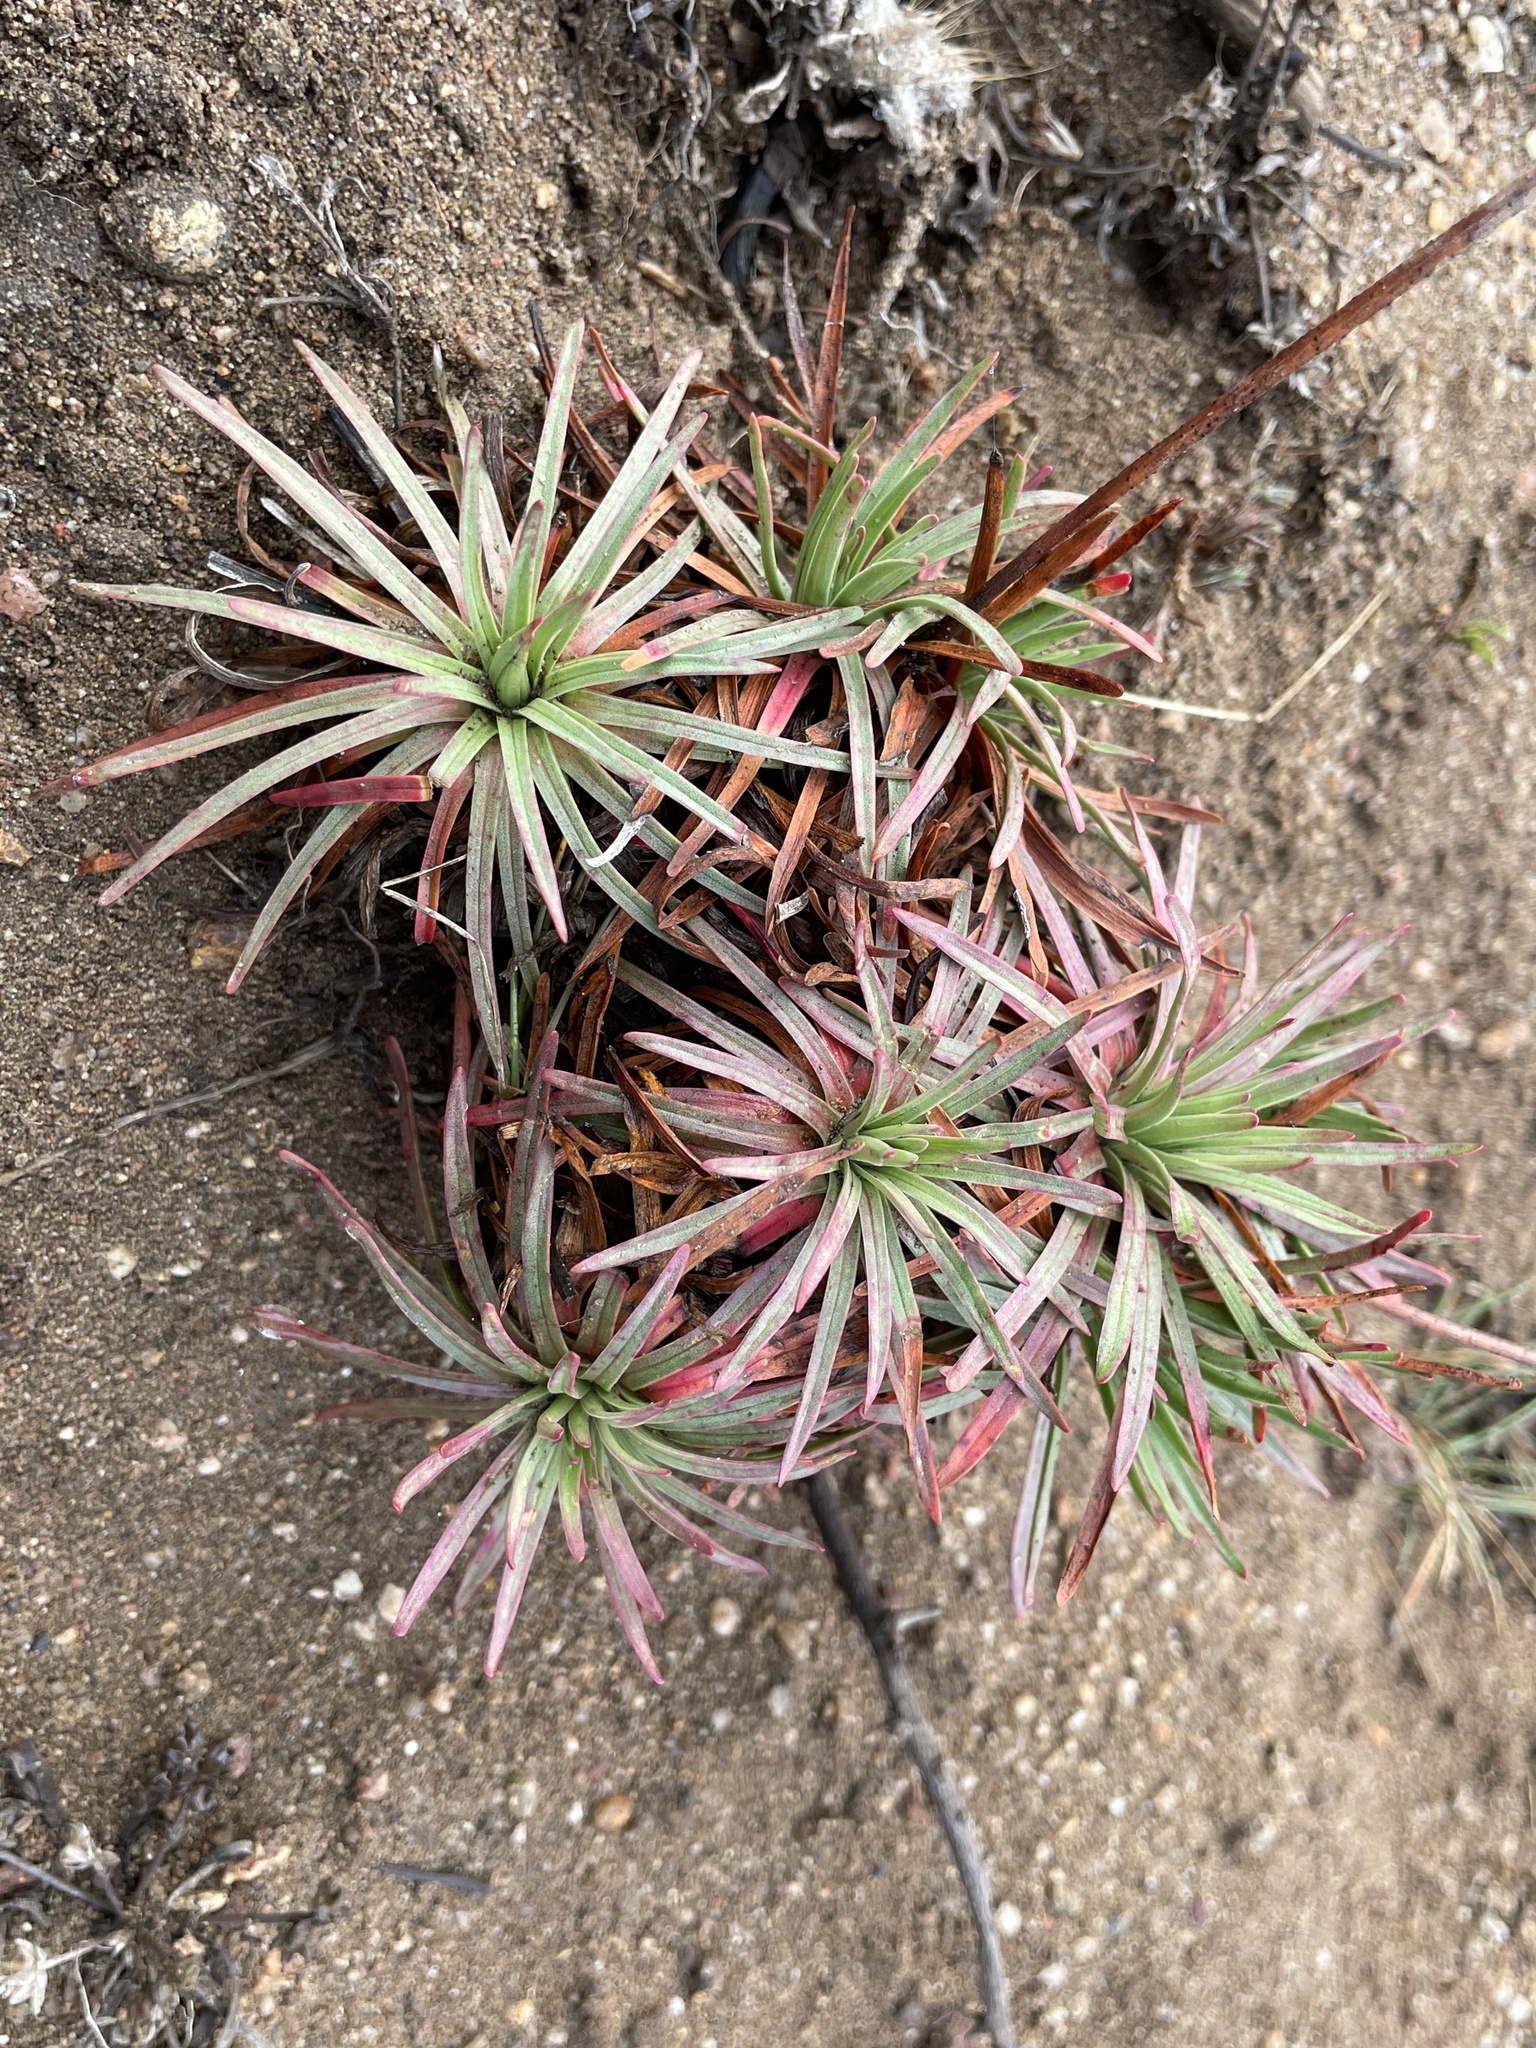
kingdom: Plantae
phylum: Tracheophyta
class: Magnoliopsida
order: Caryophyllales
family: Plumbaginaceae
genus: Armeria
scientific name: Armeria maritima
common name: Thrift
